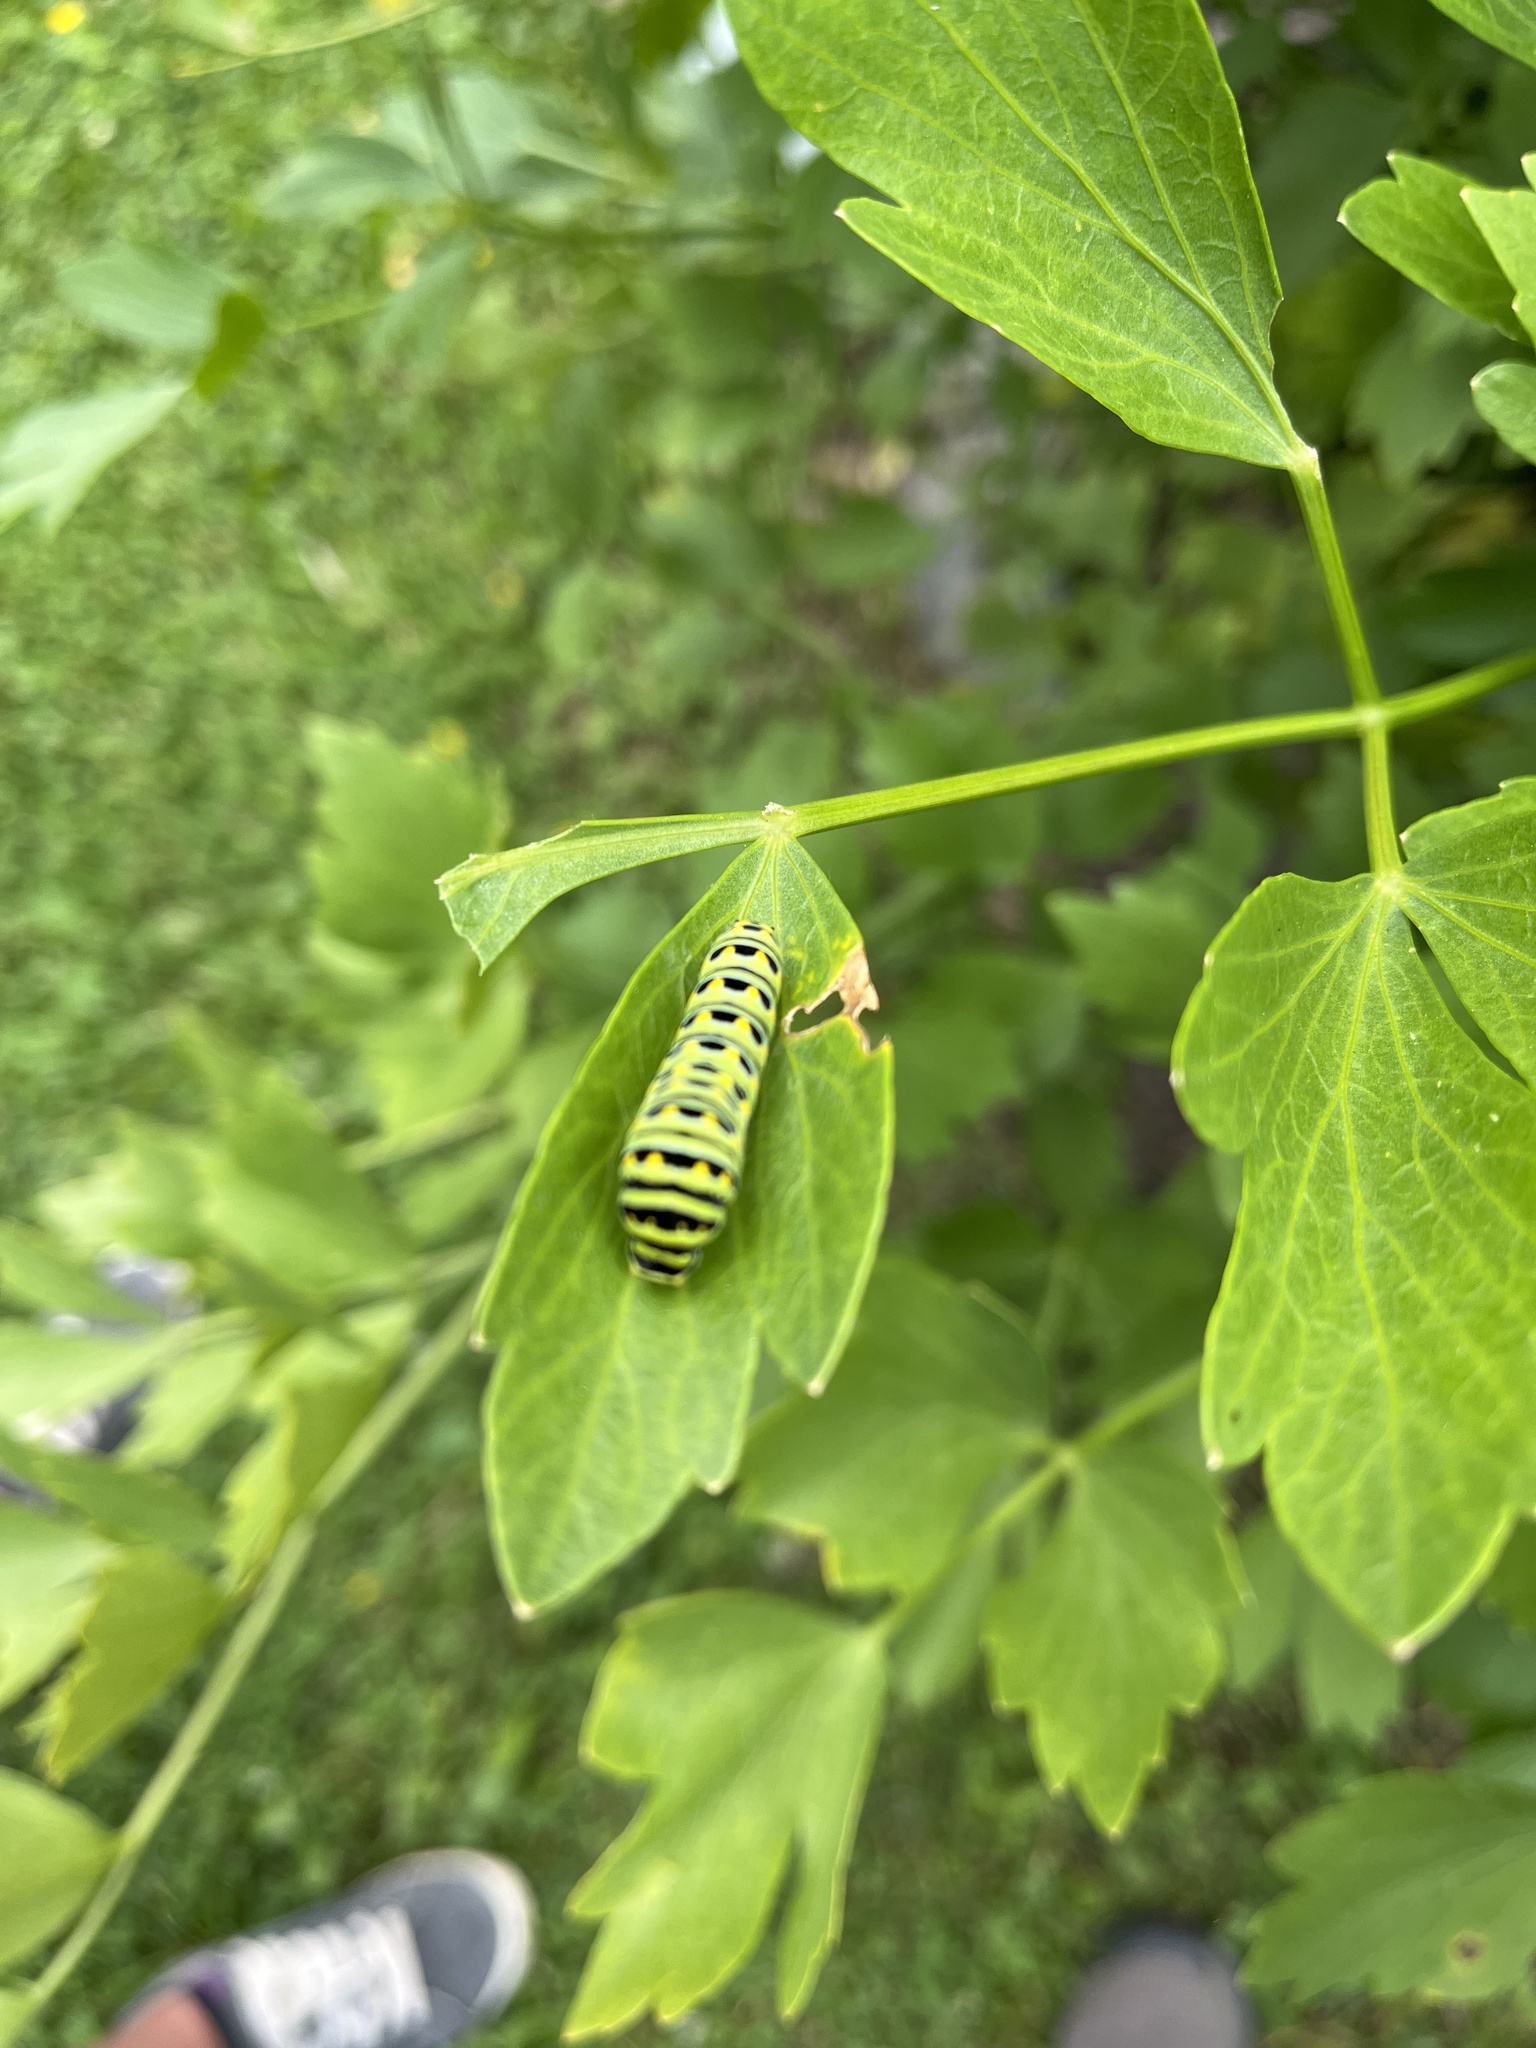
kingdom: Animalia
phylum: Arthropoda
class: Insecta
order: Lepidoptera
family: Papilionidae
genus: Papilio
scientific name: Papilio zelicaon
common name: Anise swallowtail
